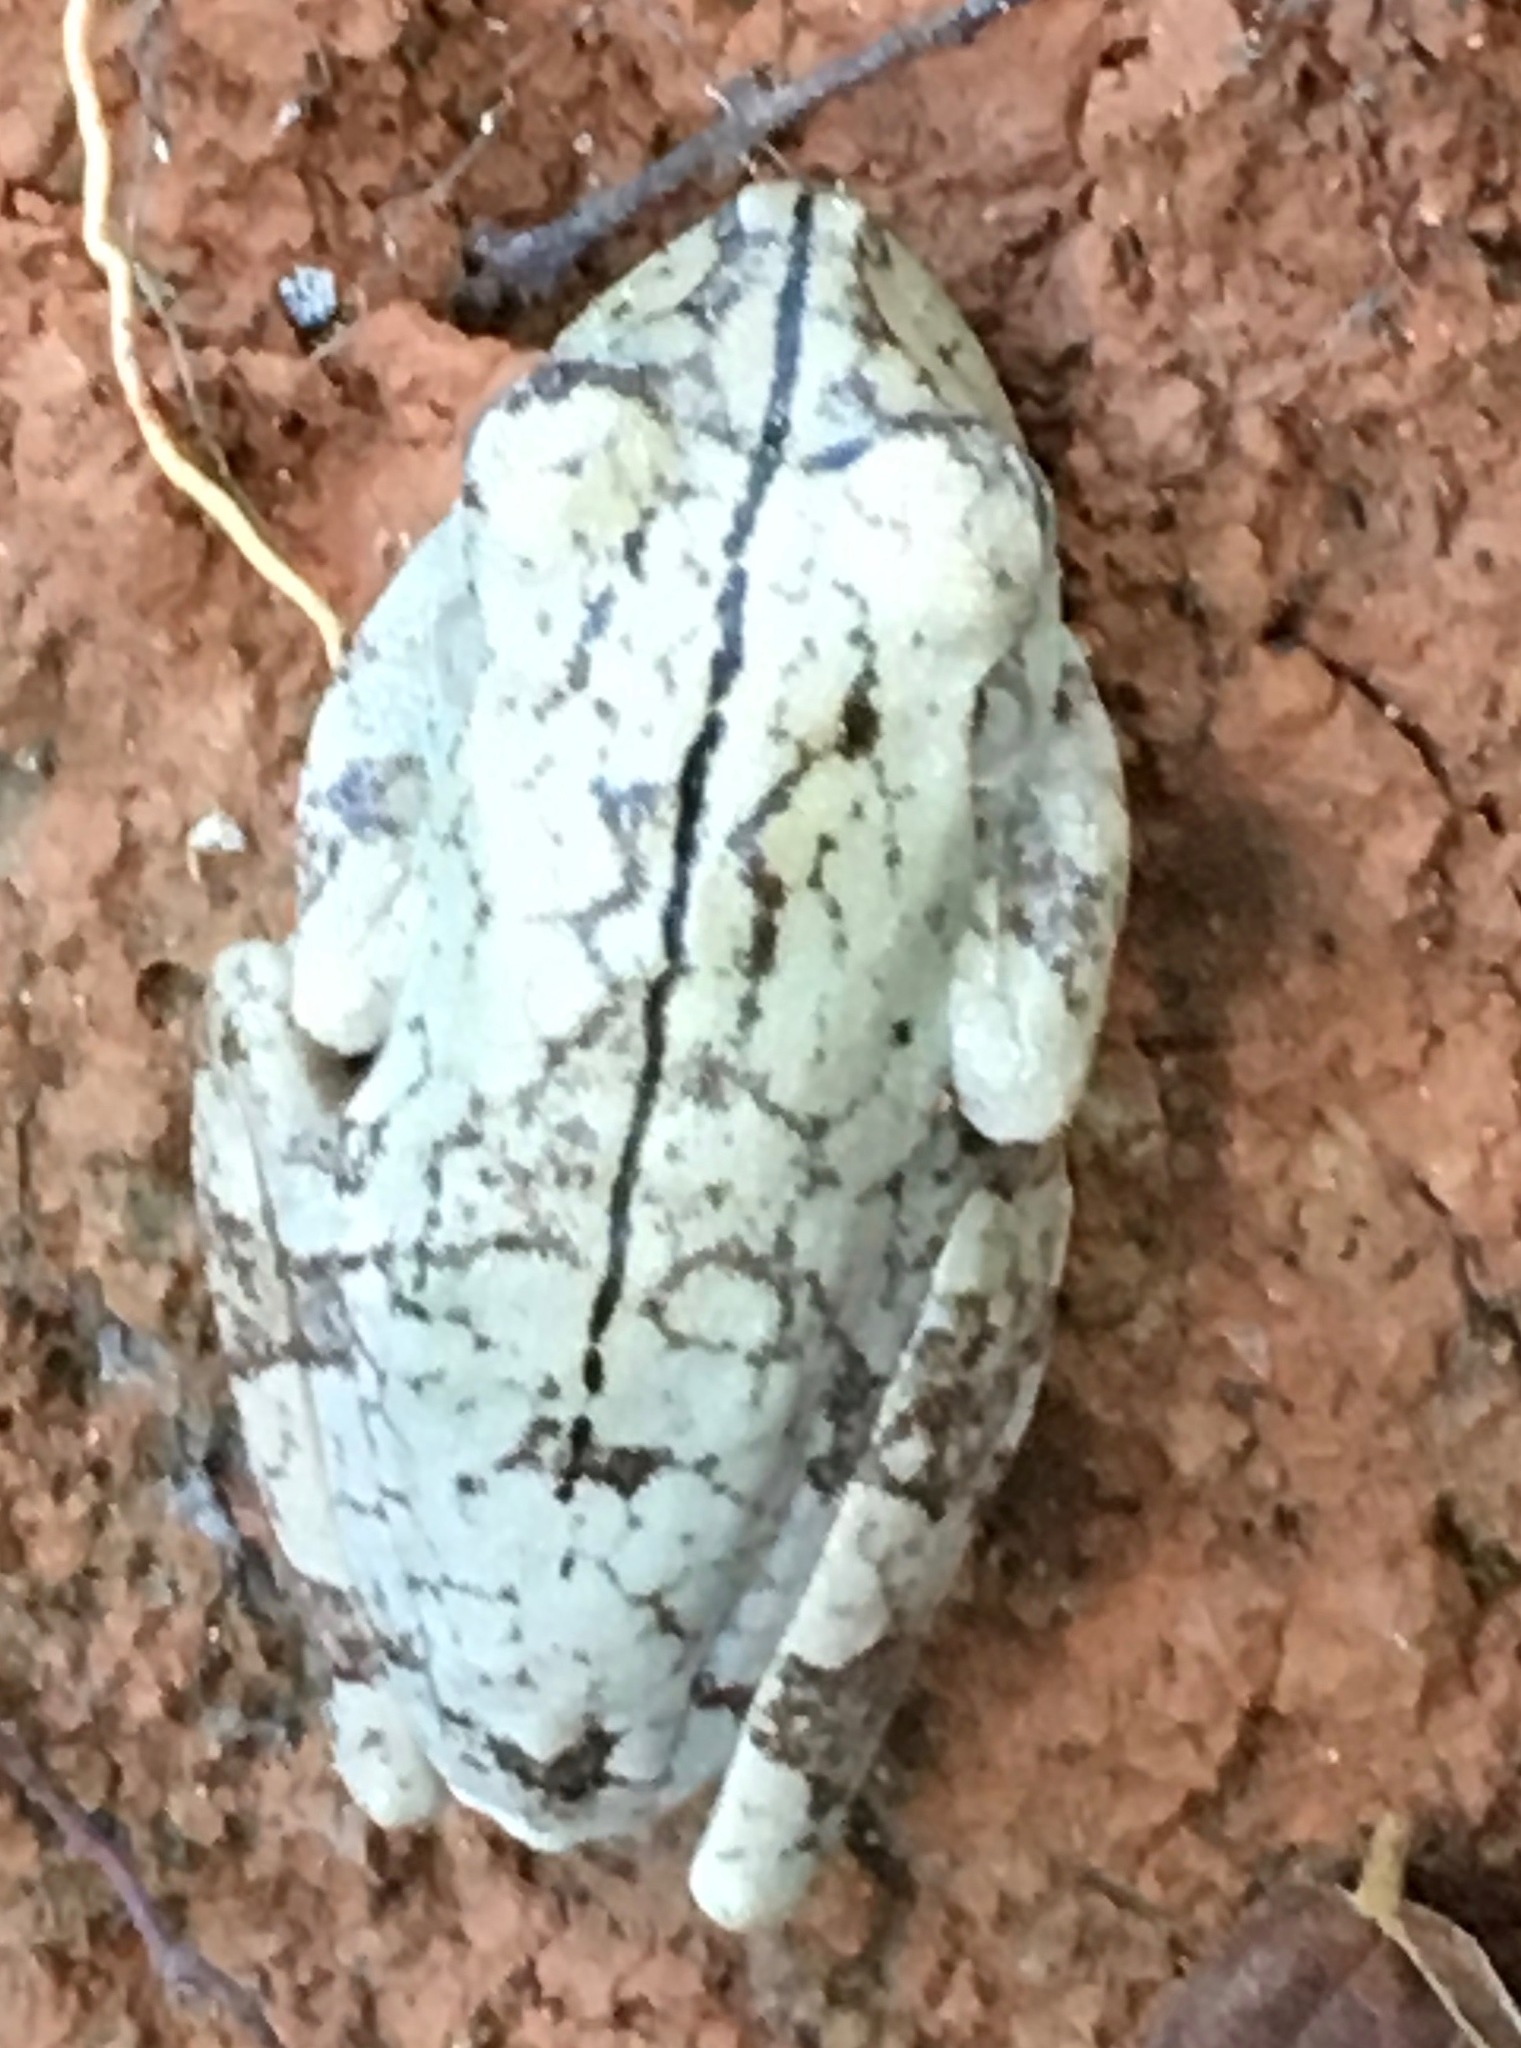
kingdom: Animalia
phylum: Chordata
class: Amphibia
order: Anura
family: Hylidae
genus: Boana
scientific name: Boana rosenbergi
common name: Rosenberg´s gladiator treefrog
